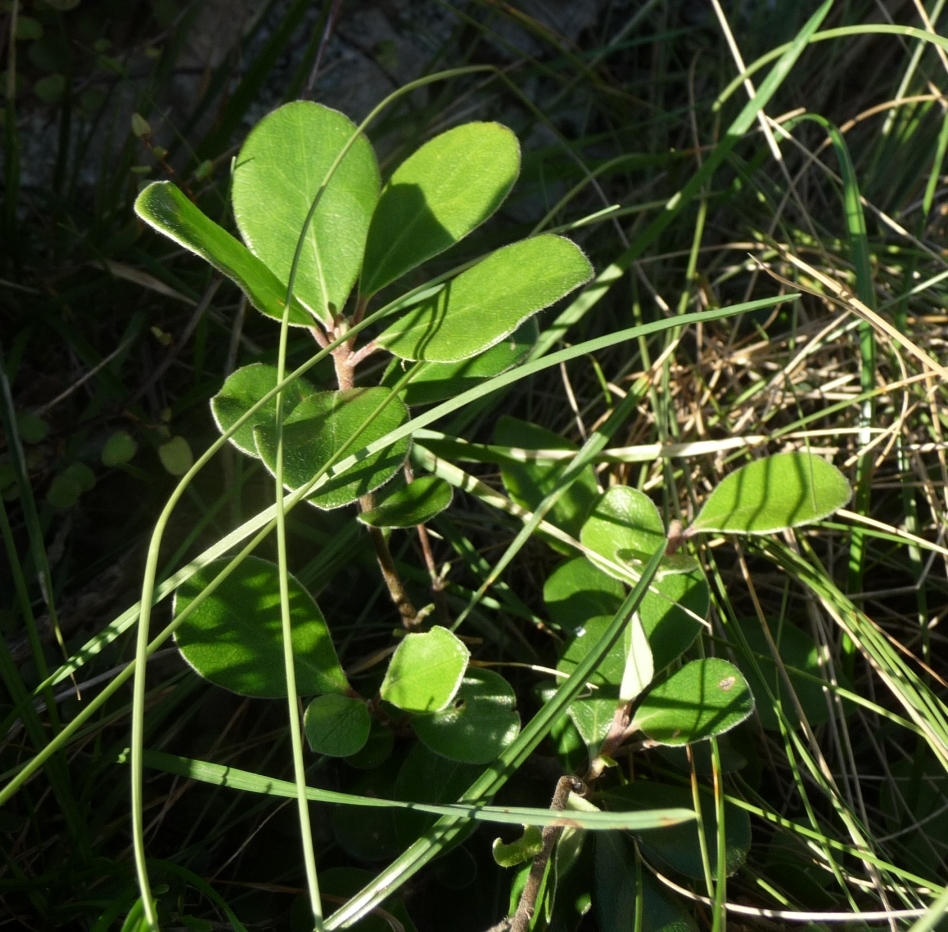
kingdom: Plantae
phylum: Tracheophyta
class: Magnoliopsida
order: Apiales
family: Pittosporaceae
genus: Pittosporum
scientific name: Pittosporum crassifolium
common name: Karo
